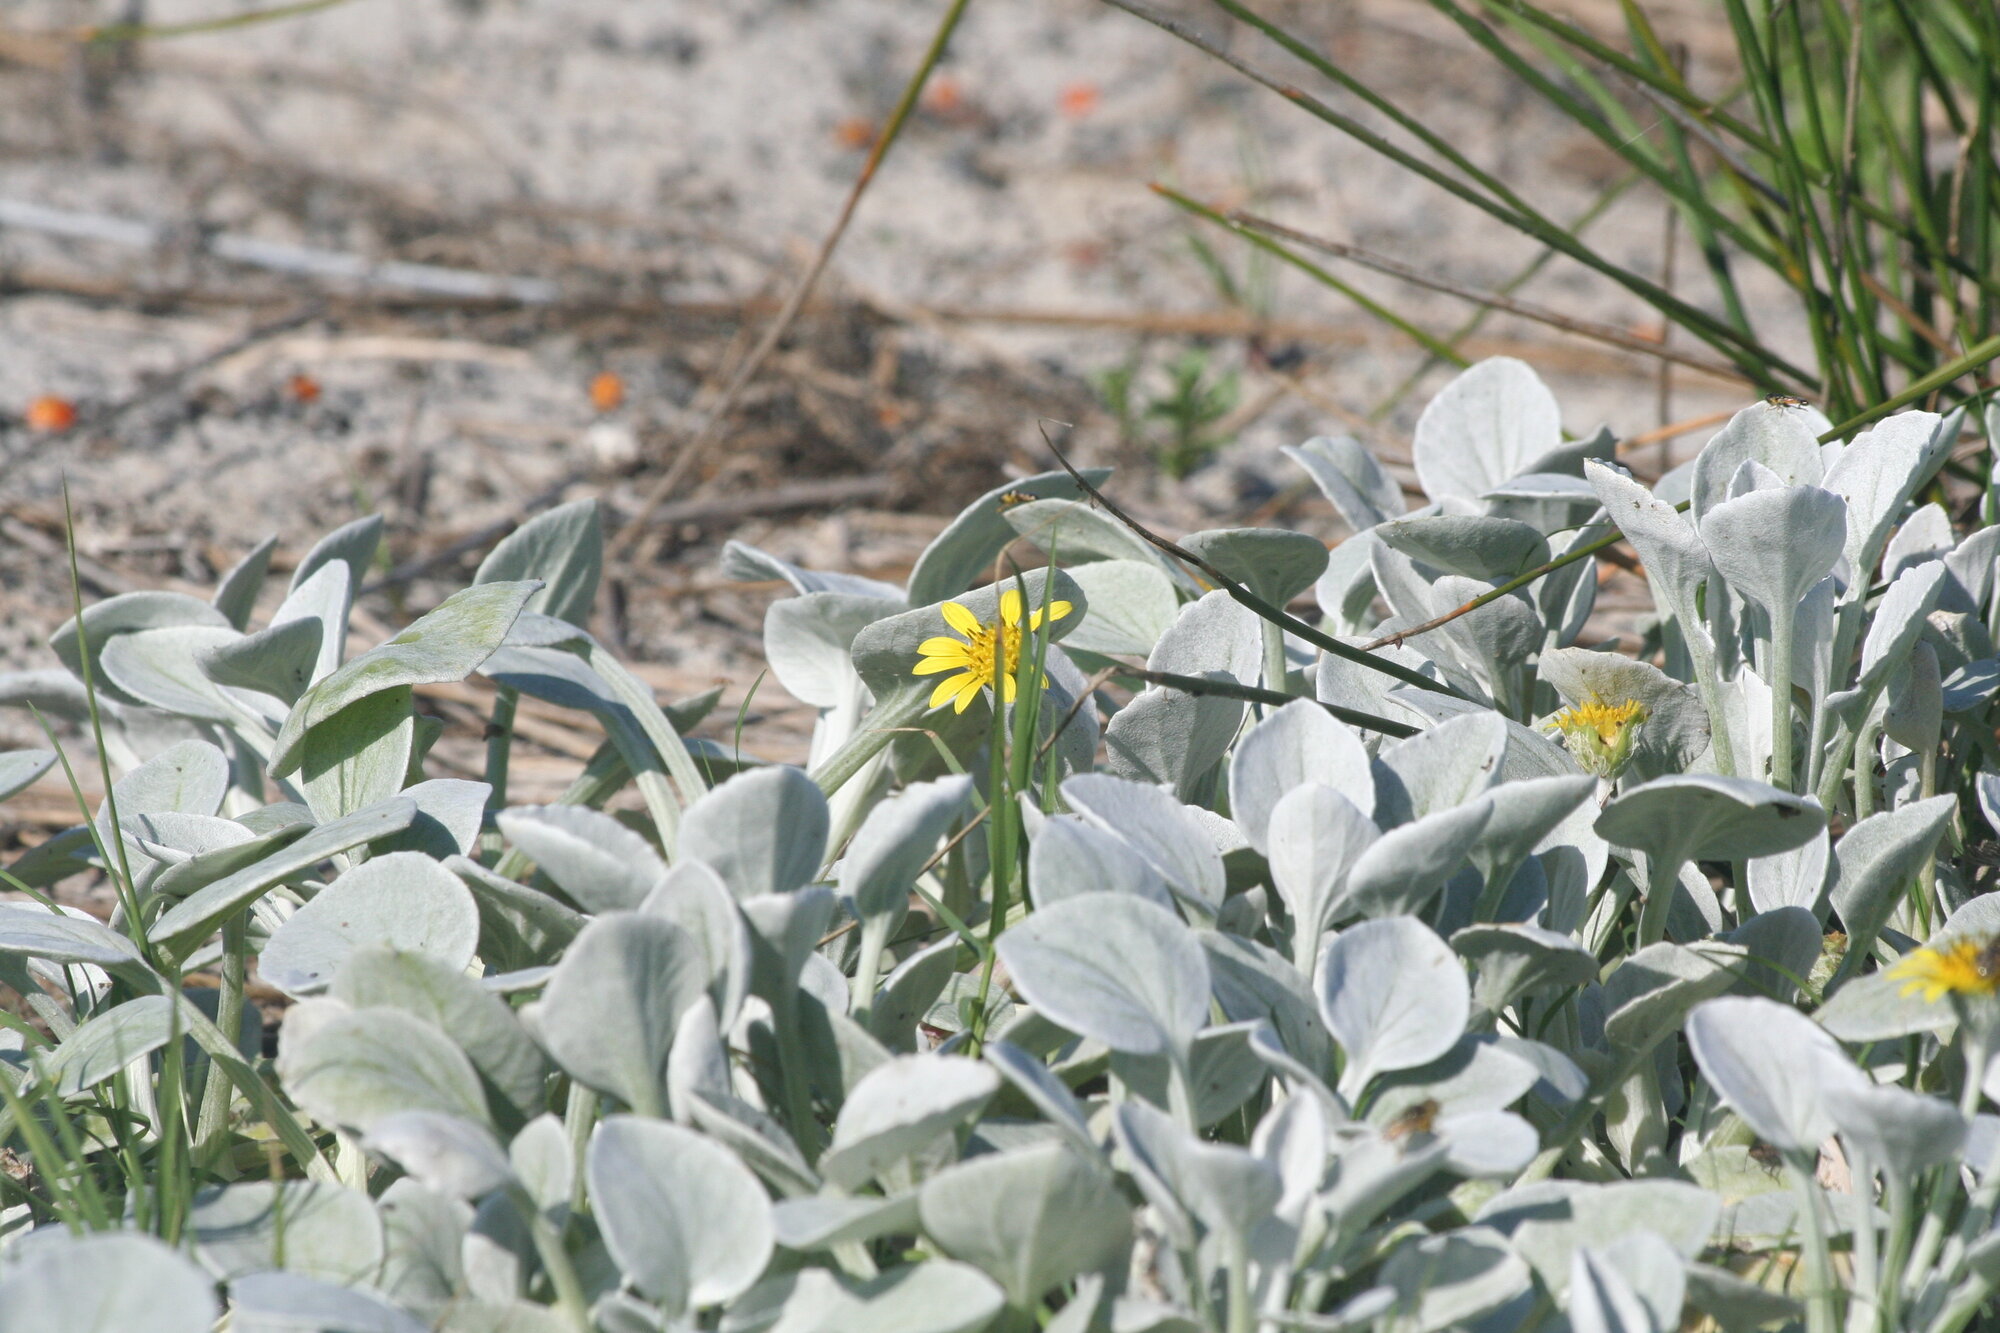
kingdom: Plantae
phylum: Tracheophyta
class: Magnoliopsida
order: Asterales
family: Asteraceae
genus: Arctotheca
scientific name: Arctotheca populifolia
